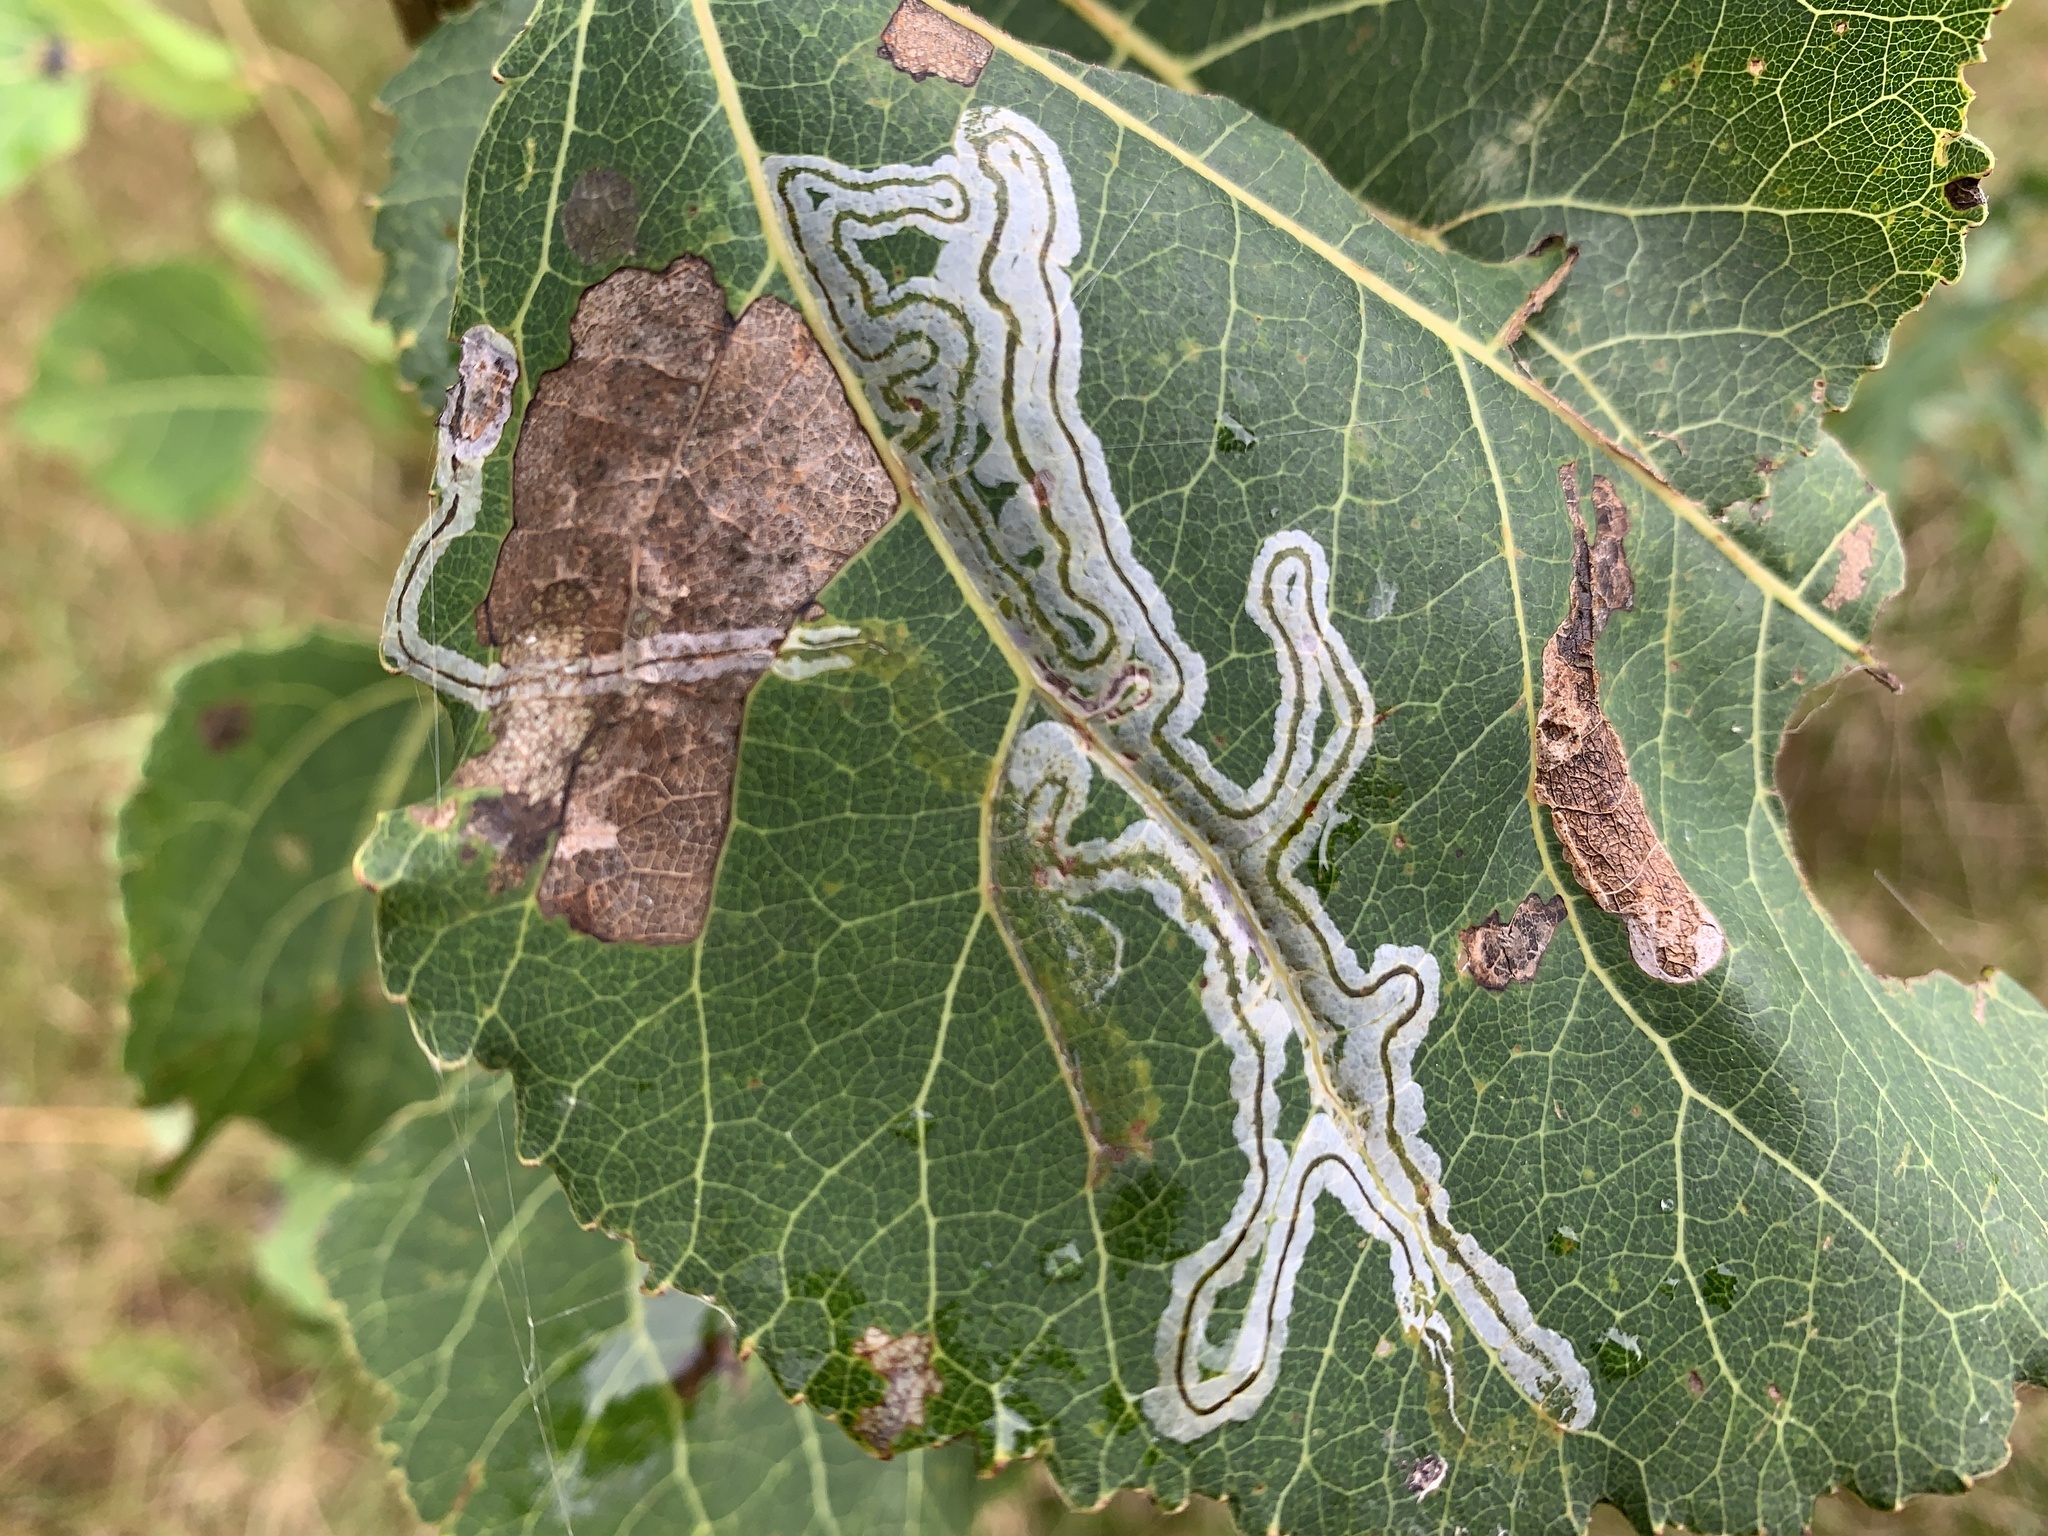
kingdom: Animalia
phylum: Arthropoda
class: Insecta
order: Lepidoptera
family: Gracillariidae
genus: Phyllocnistis
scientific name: Phyllocnistis populiella
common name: Aspen serpentine leafminer moth
